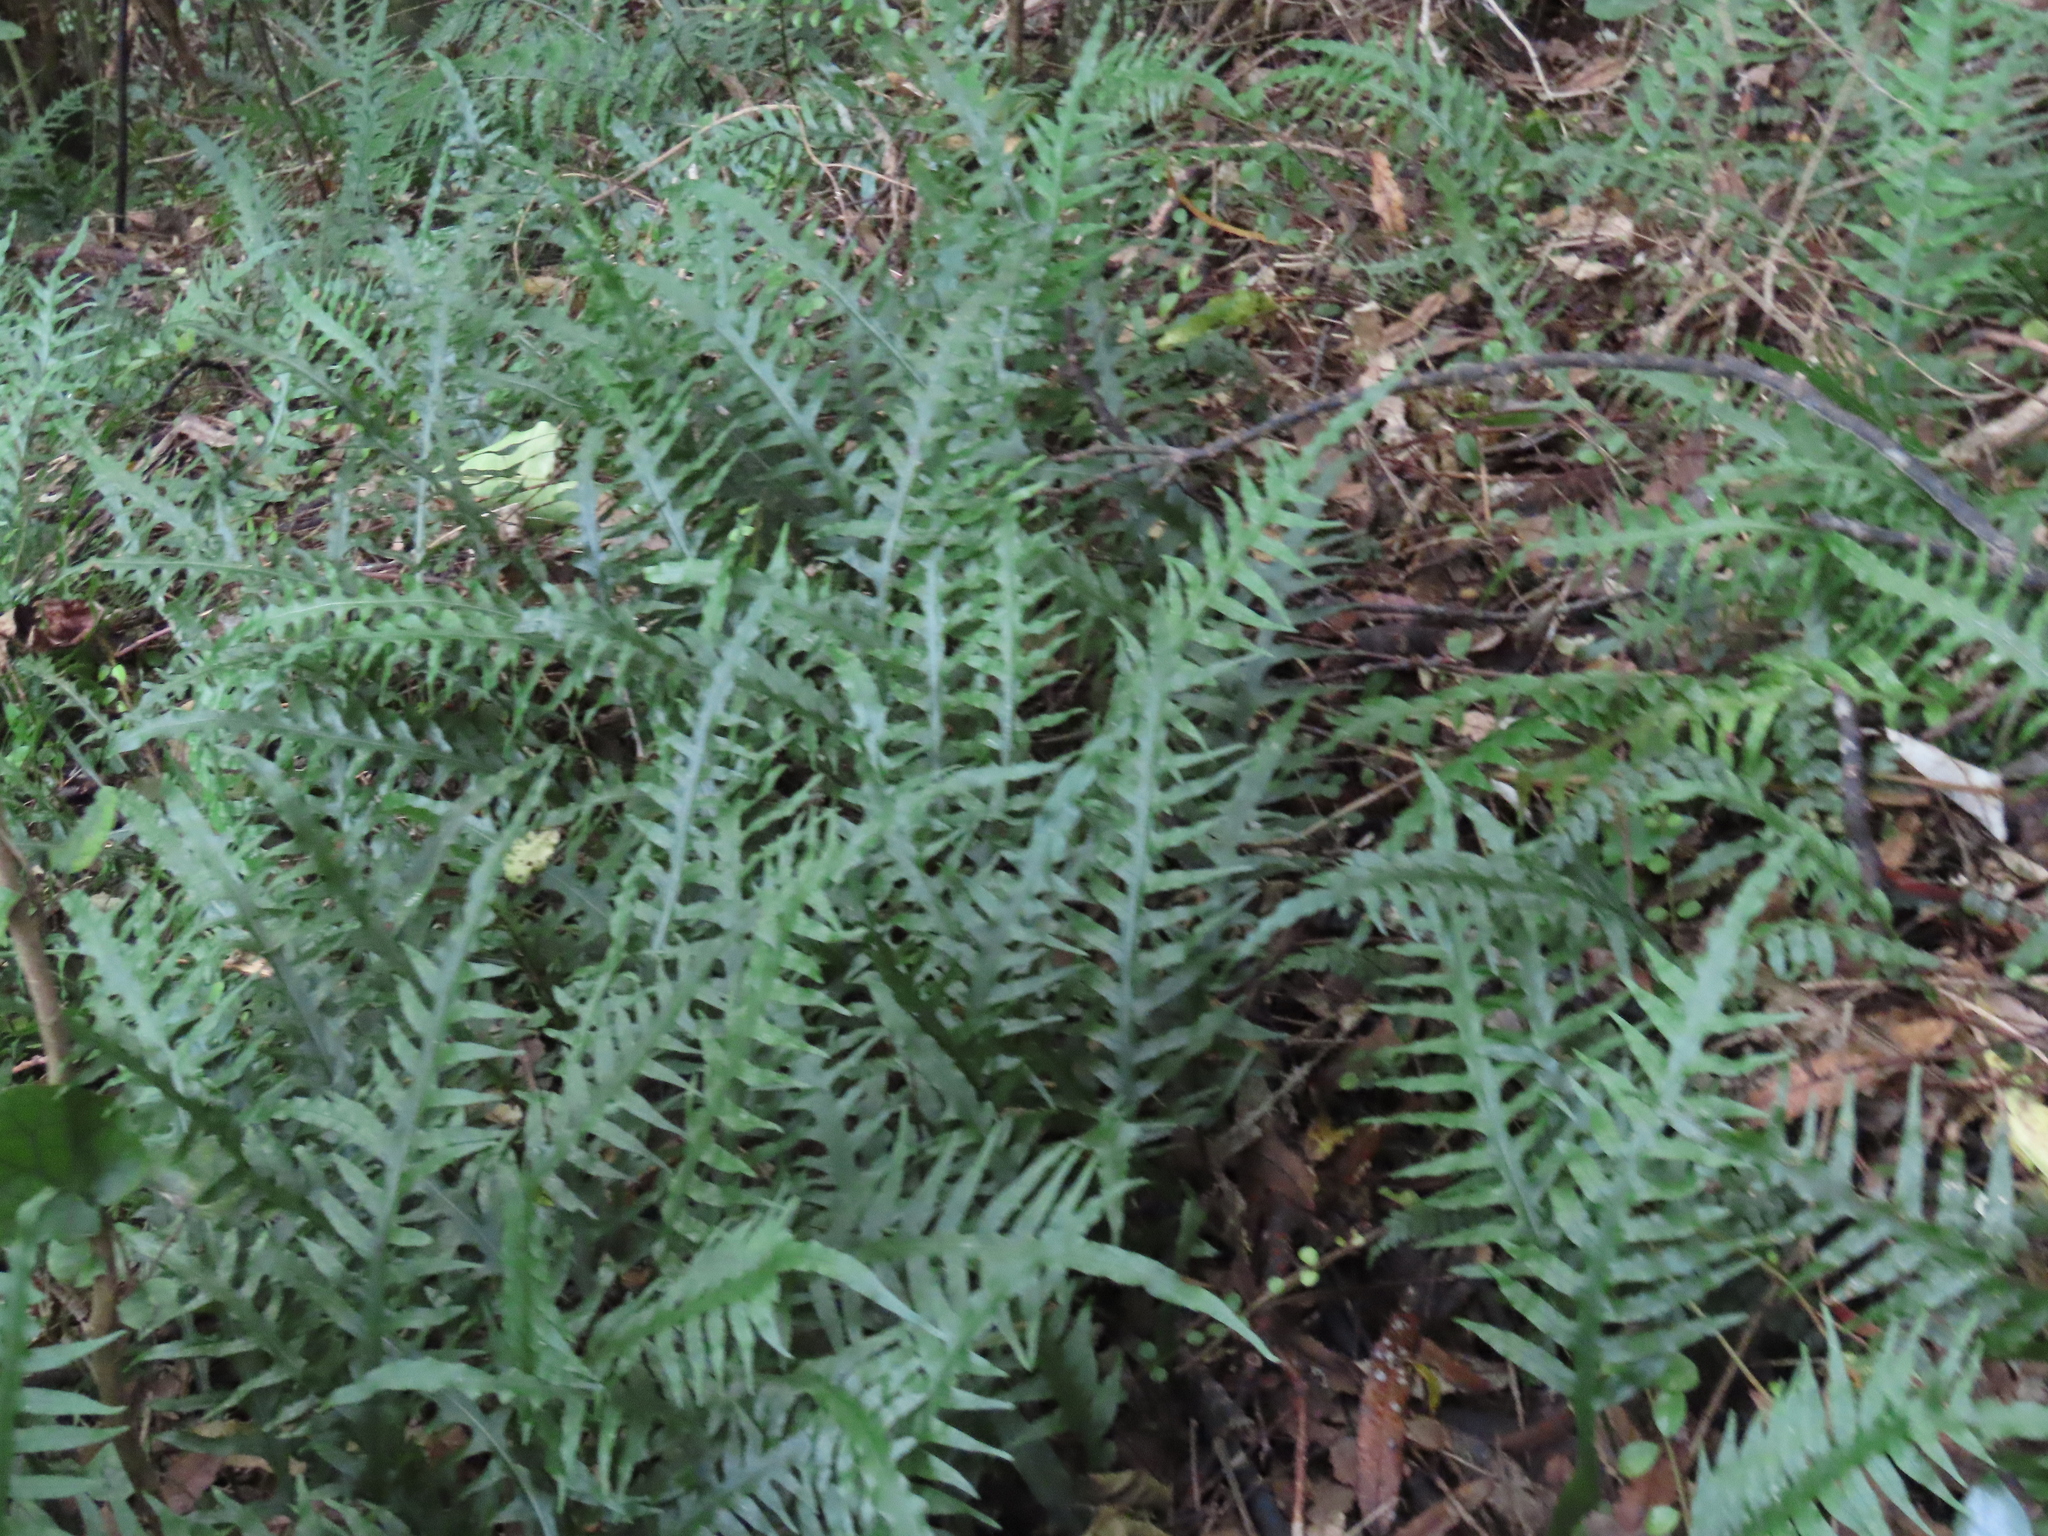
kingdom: Plantae
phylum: Tracheophyta
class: Polypodiopsida
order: Polypodiales
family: Polypodiaceae
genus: Lecanopteris
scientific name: Lecanopteris scandens
